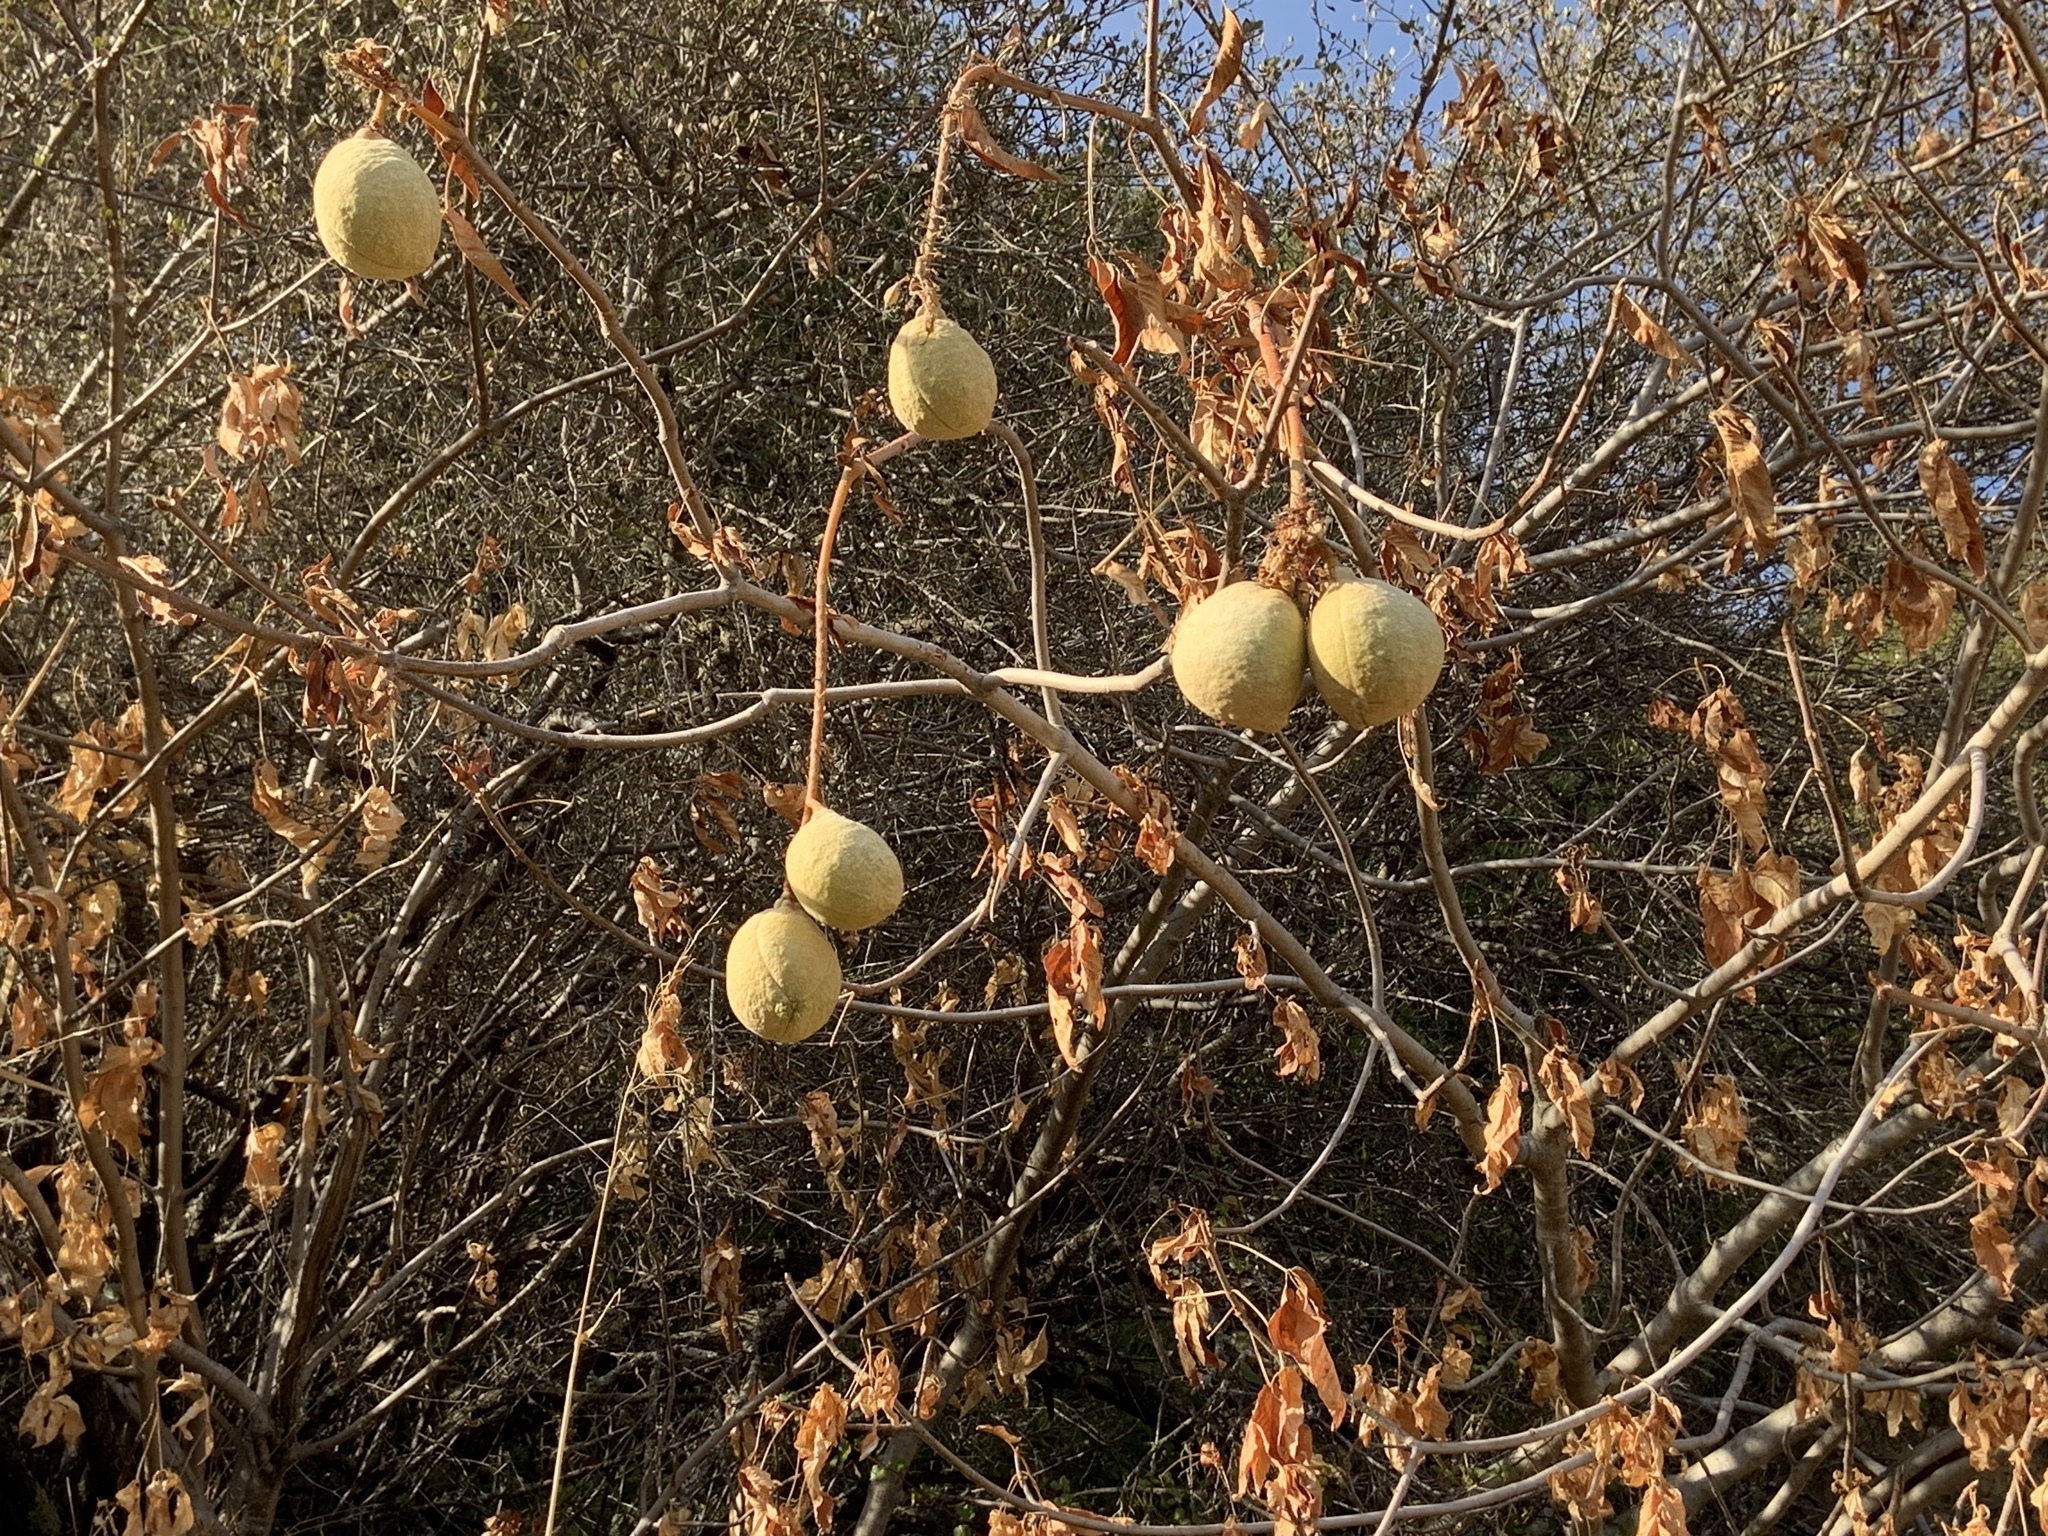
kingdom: Plantae
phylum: Tracheophyta
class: Magnoliopsida
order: Sapindales
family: Sapindaceae
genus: Aesculus
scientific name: Aesculus californica
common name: California buckeye
